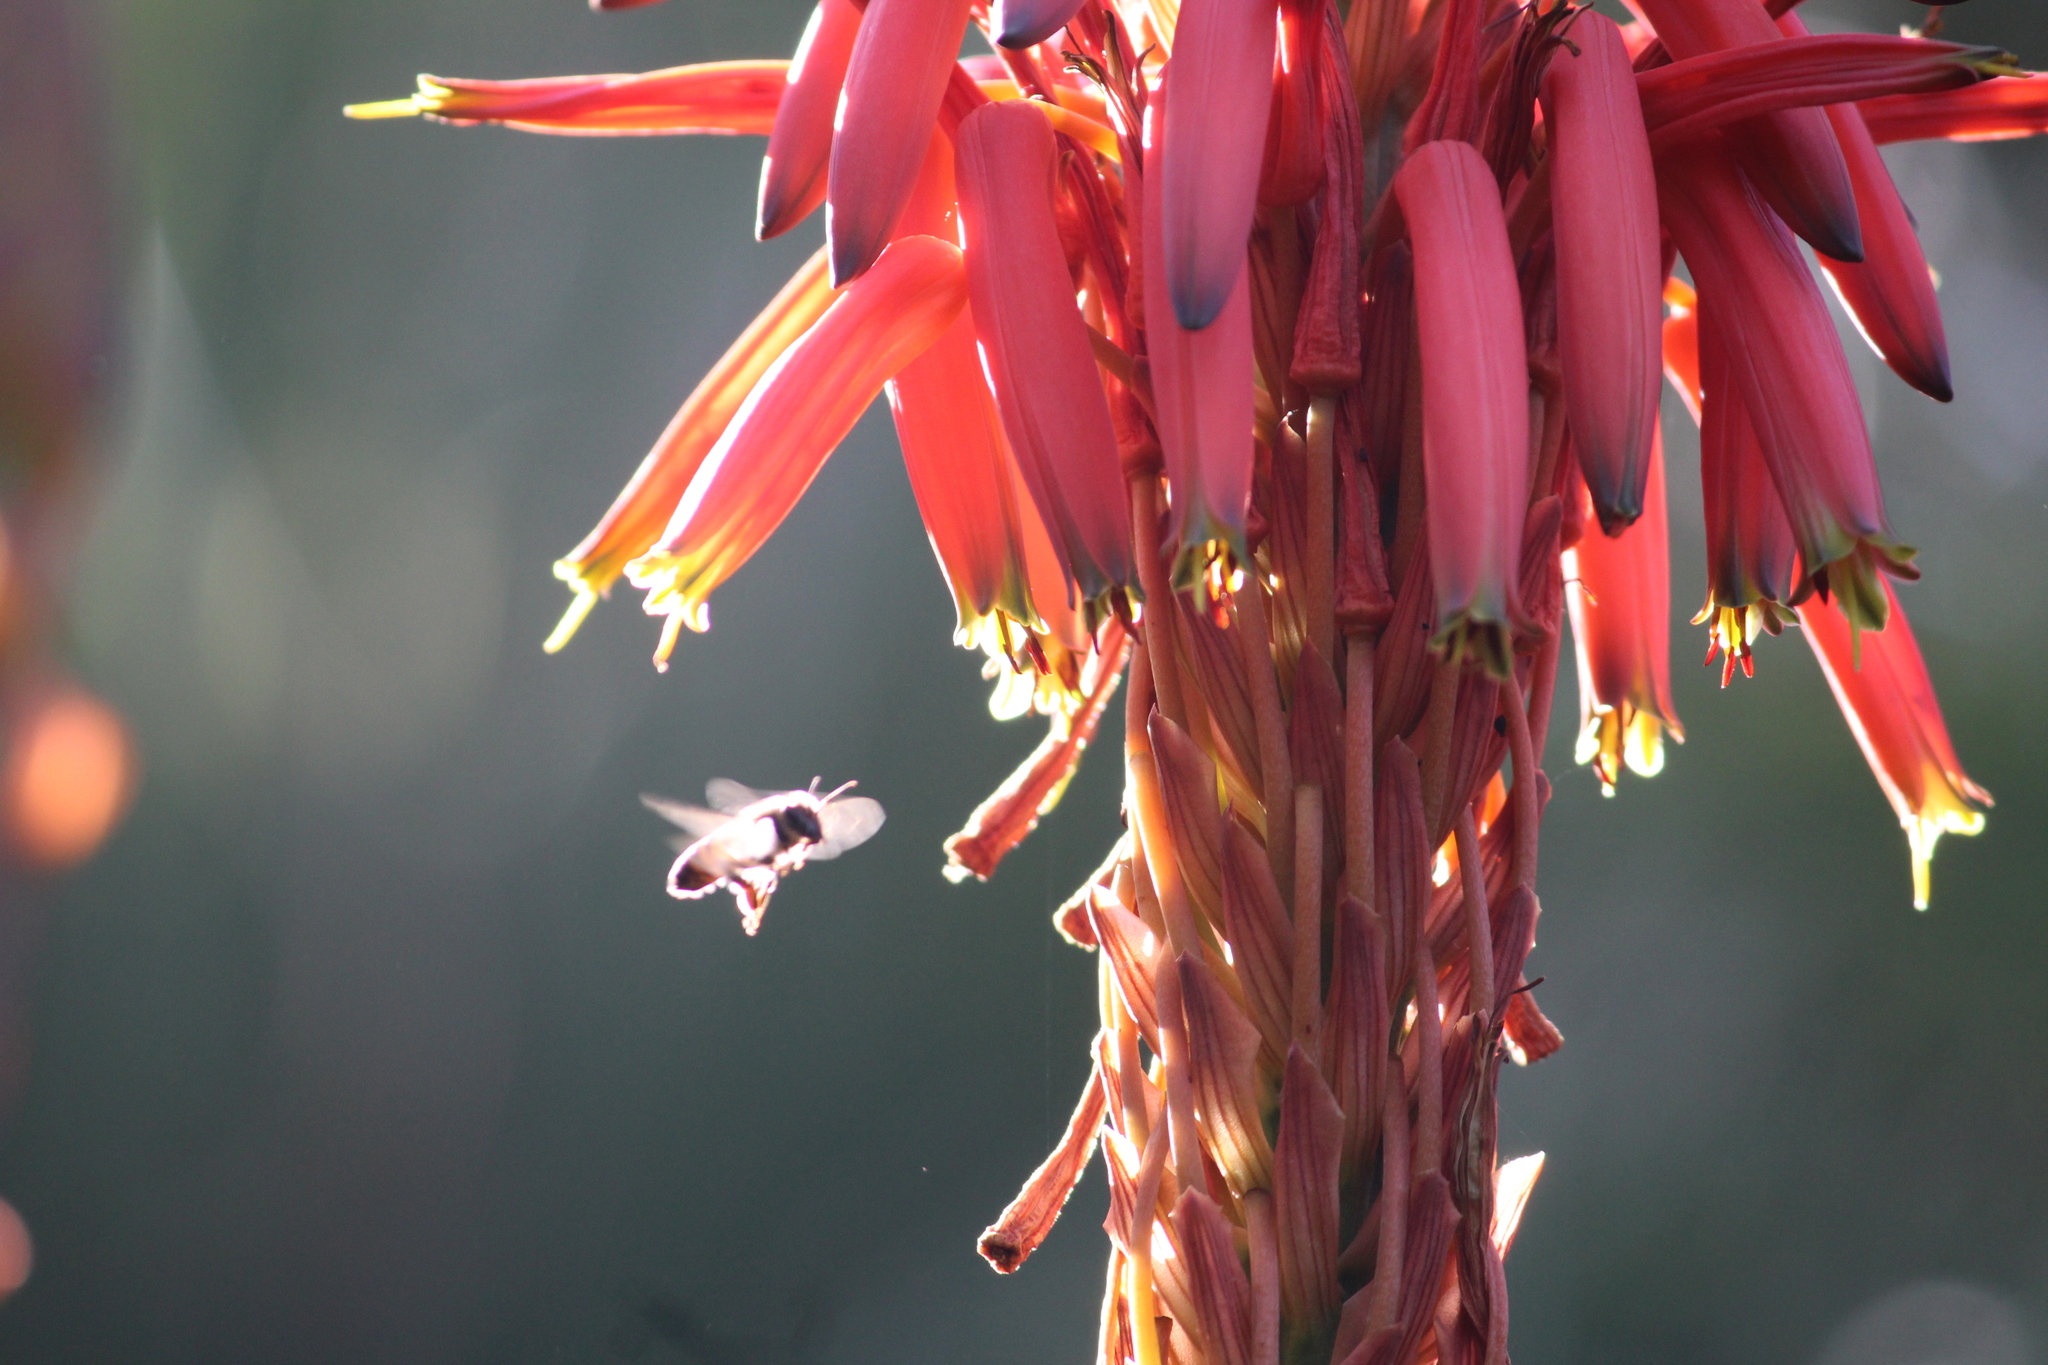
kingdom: Animalia
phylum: Arthropoda
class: Insecta
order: Hymenoptera
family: Apidae
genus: Apis
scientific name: Apis mellifera
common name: Honey bee
